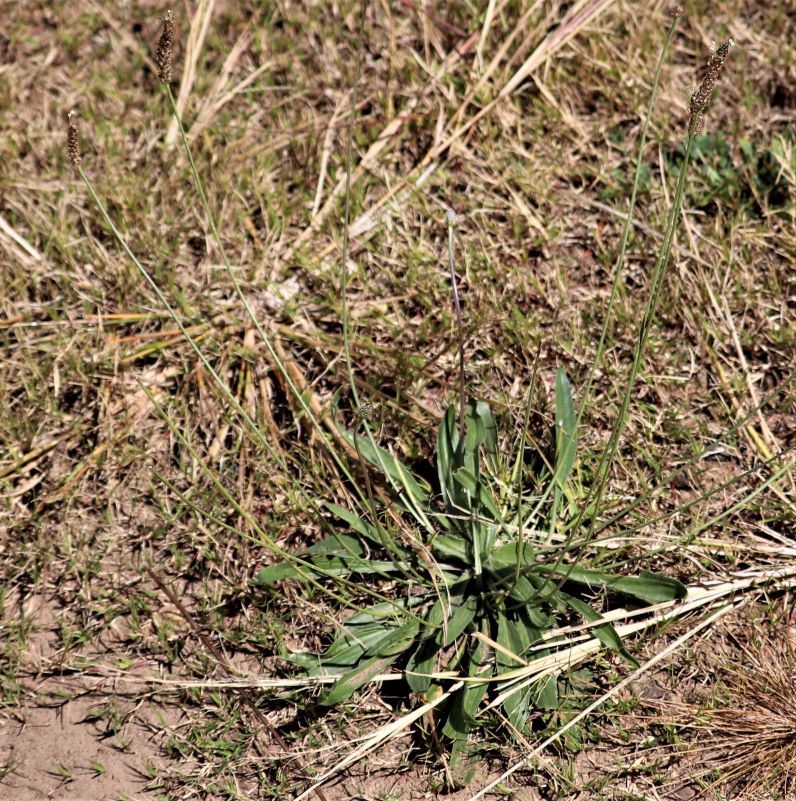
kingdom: Plantae
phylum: Tracheophyta
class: Magnoliopsida
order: Lamiales
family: Plantaginaceae
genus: Plantago
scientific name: Plantago lanceolata
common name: Ribwort plantain
